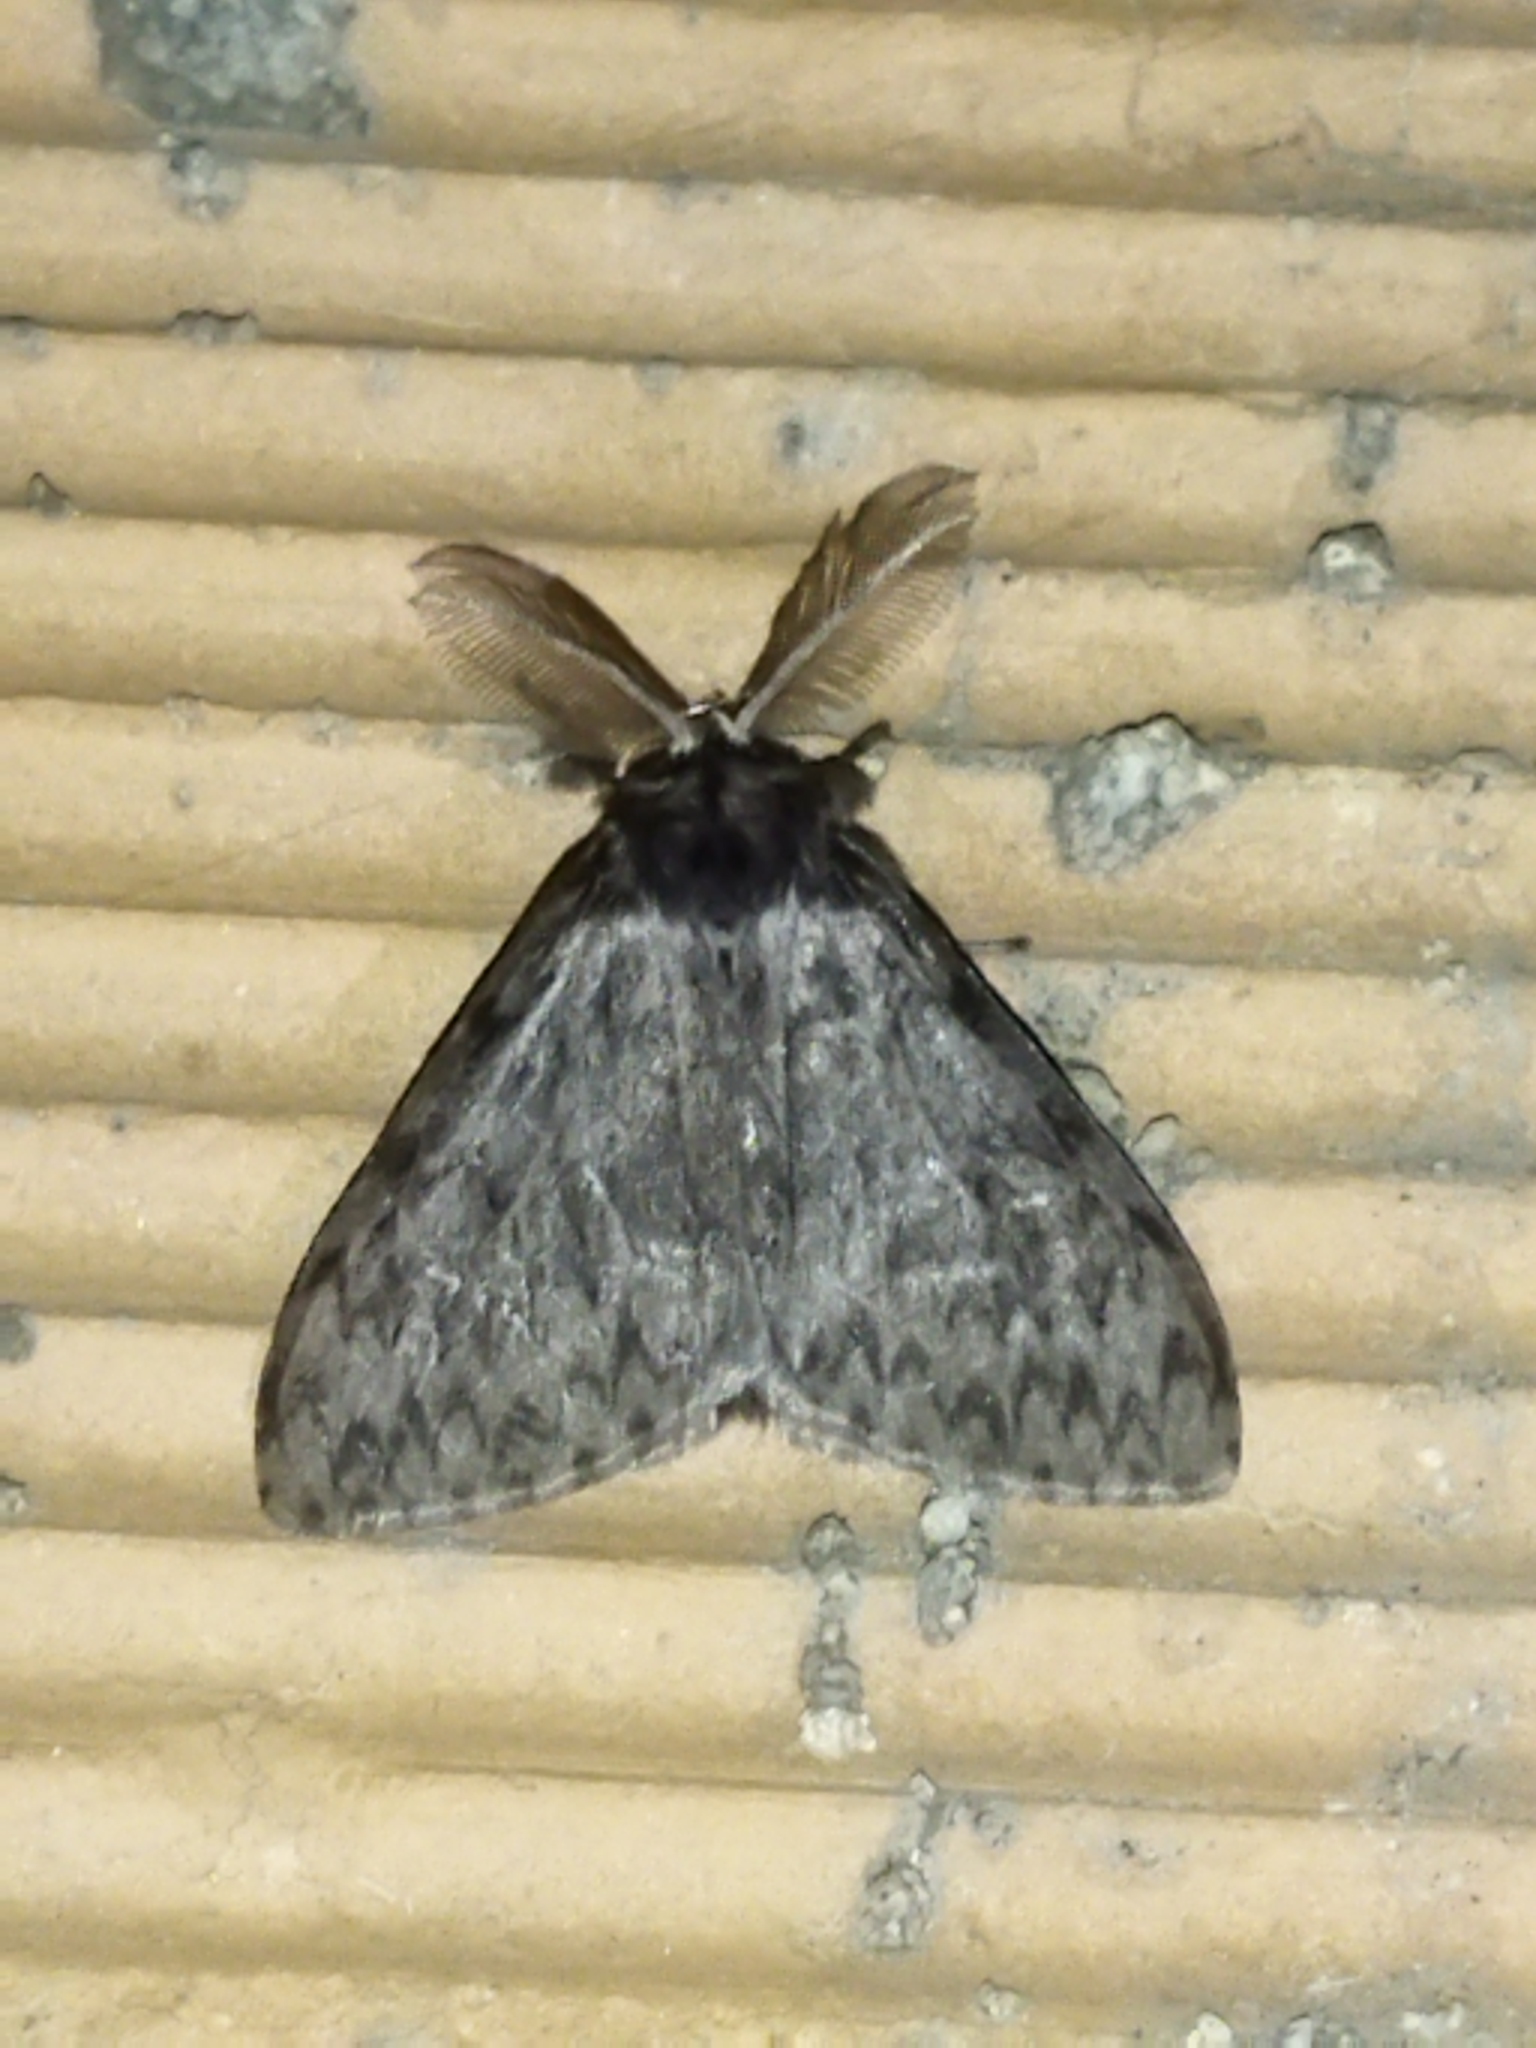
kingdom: Animalia
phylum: Arthropoda
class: Insecta
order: Lepidoptera
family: Erebidae
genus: Lymantria
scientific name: Lymantria monacha
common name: Black arches
